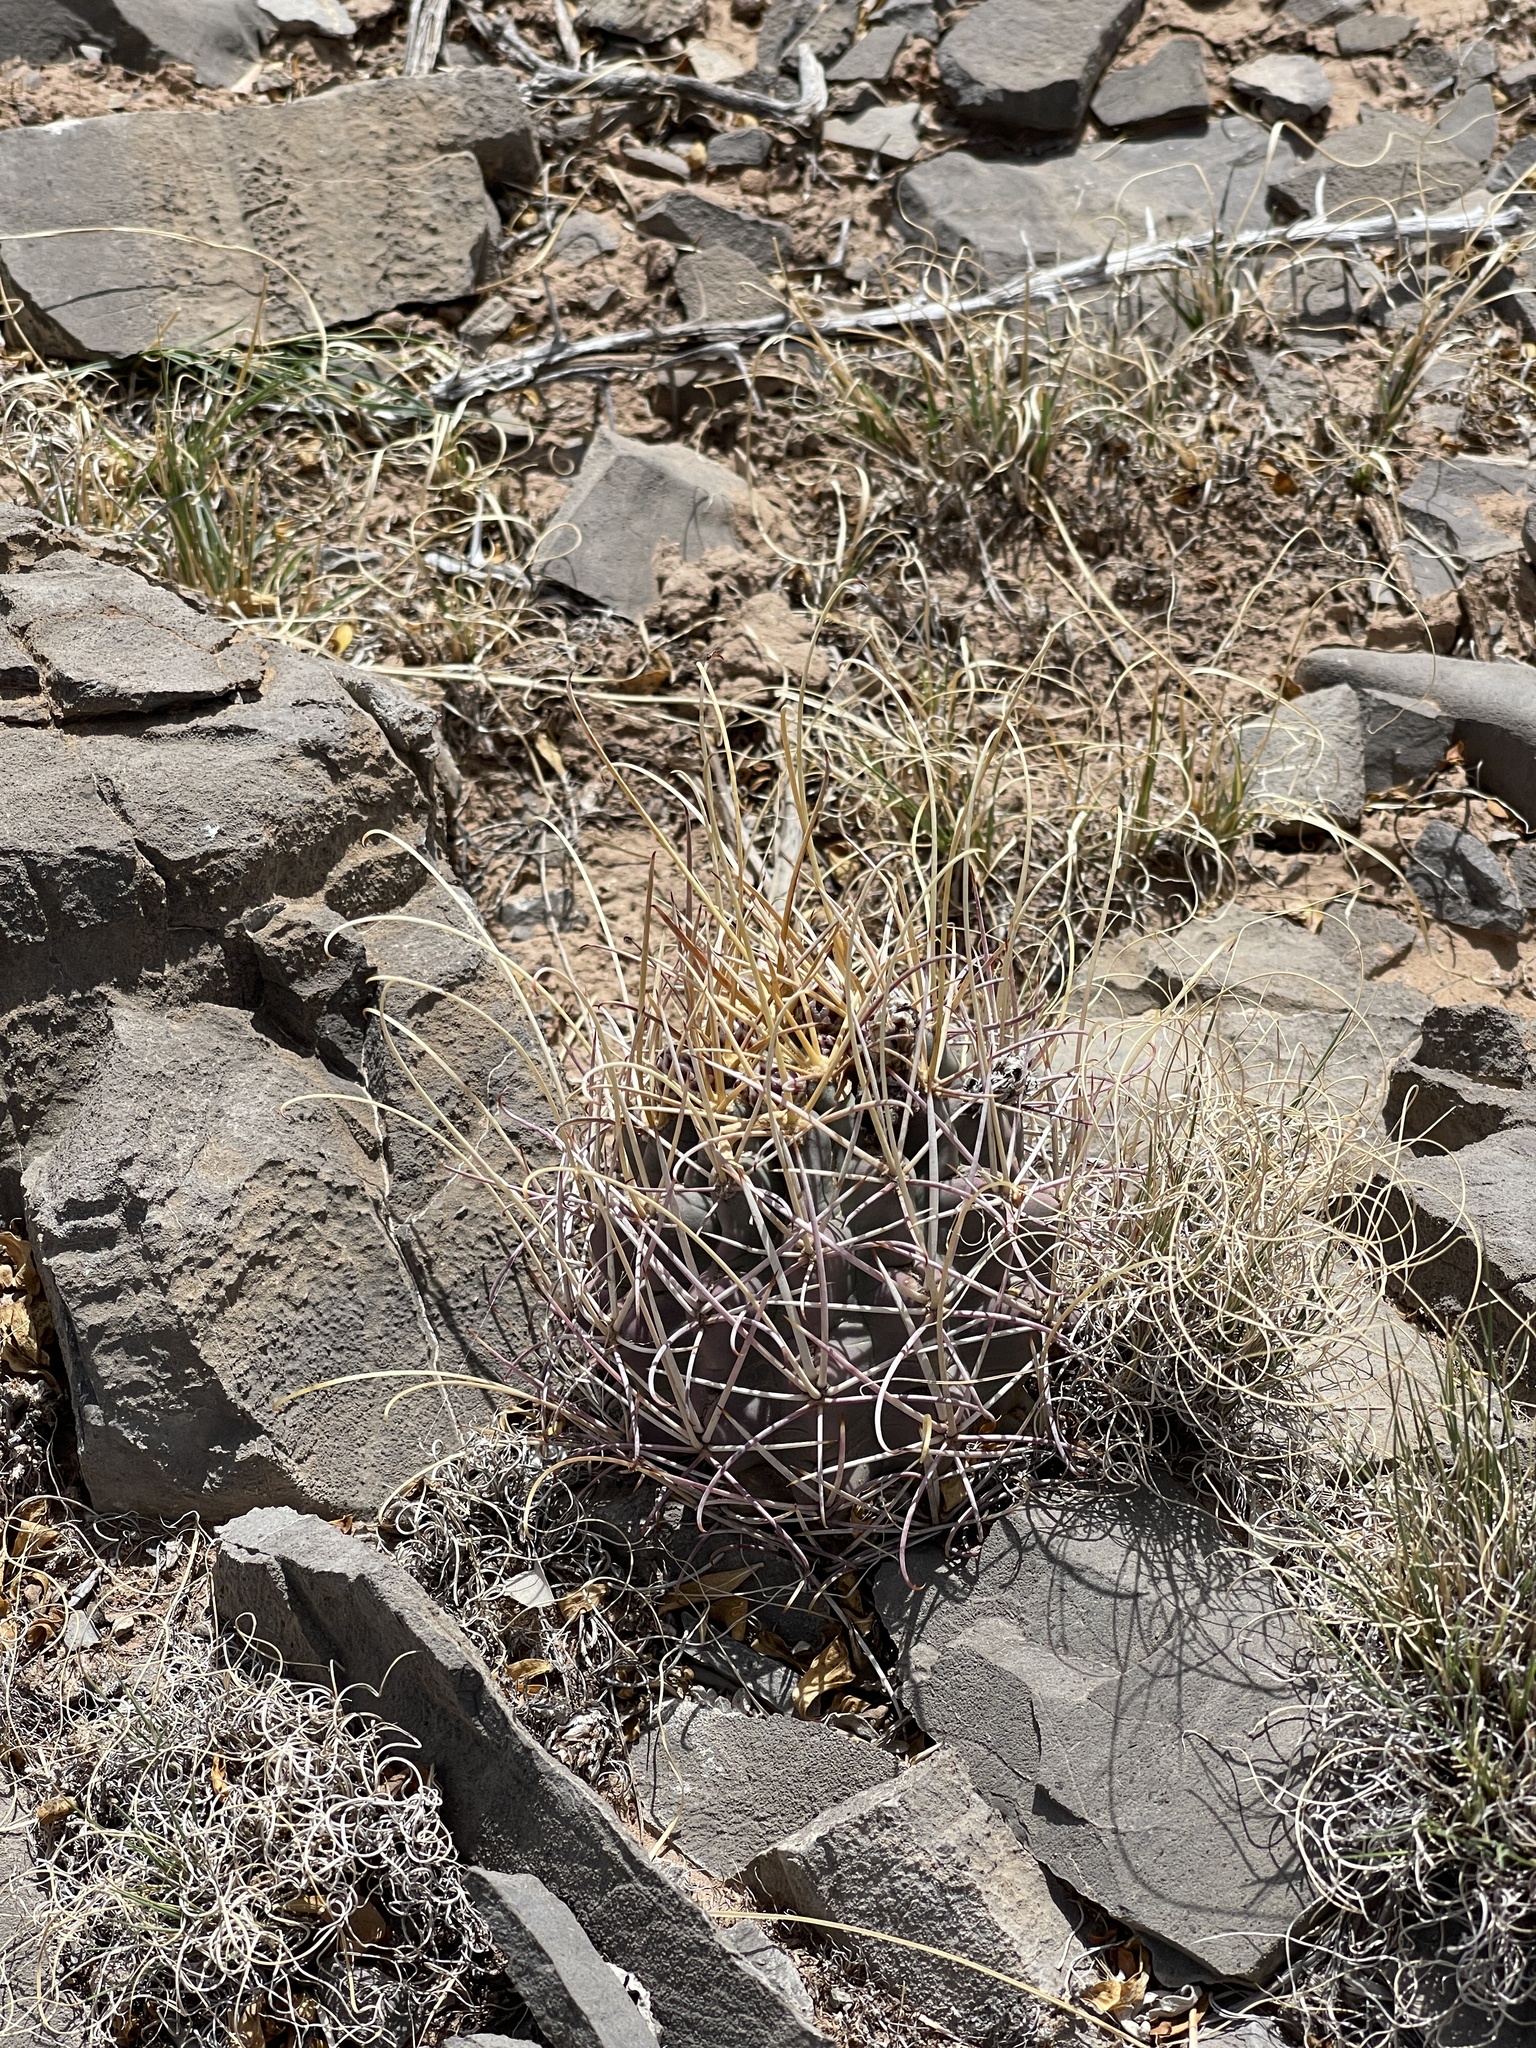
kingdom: Plantae
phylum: Tracheophyta
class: Magnoliopsida
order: Caryophyllales
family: Cactaceae
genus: Ferocactus
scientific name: Ferocactus uncinatus
